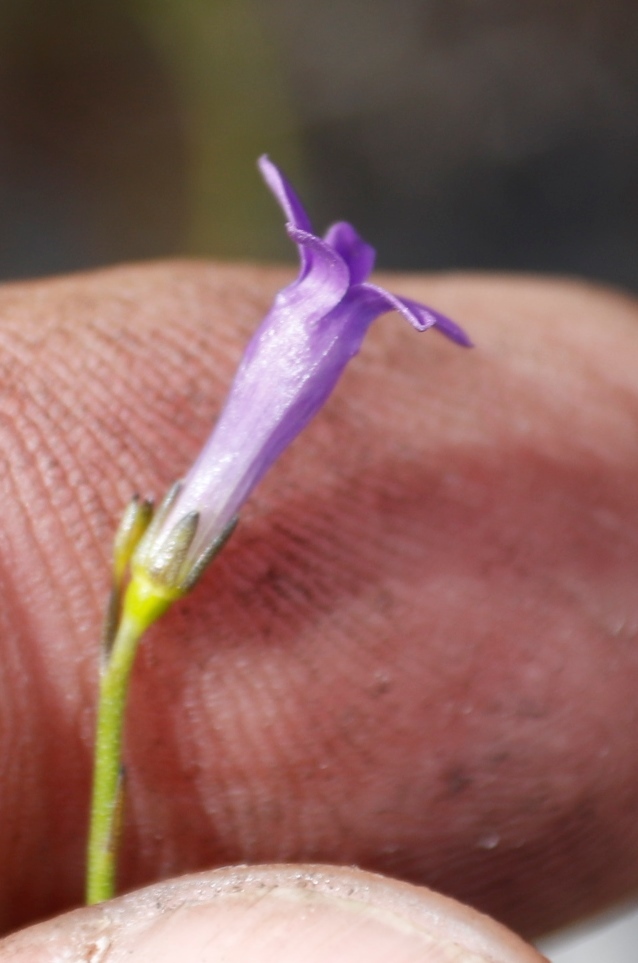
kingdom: Plantae
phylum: Tracheophyta
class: Magnoliopsida
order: Asterales
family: Campanulaceae
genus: Siphocodon
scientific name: Siphocodon spartioides
